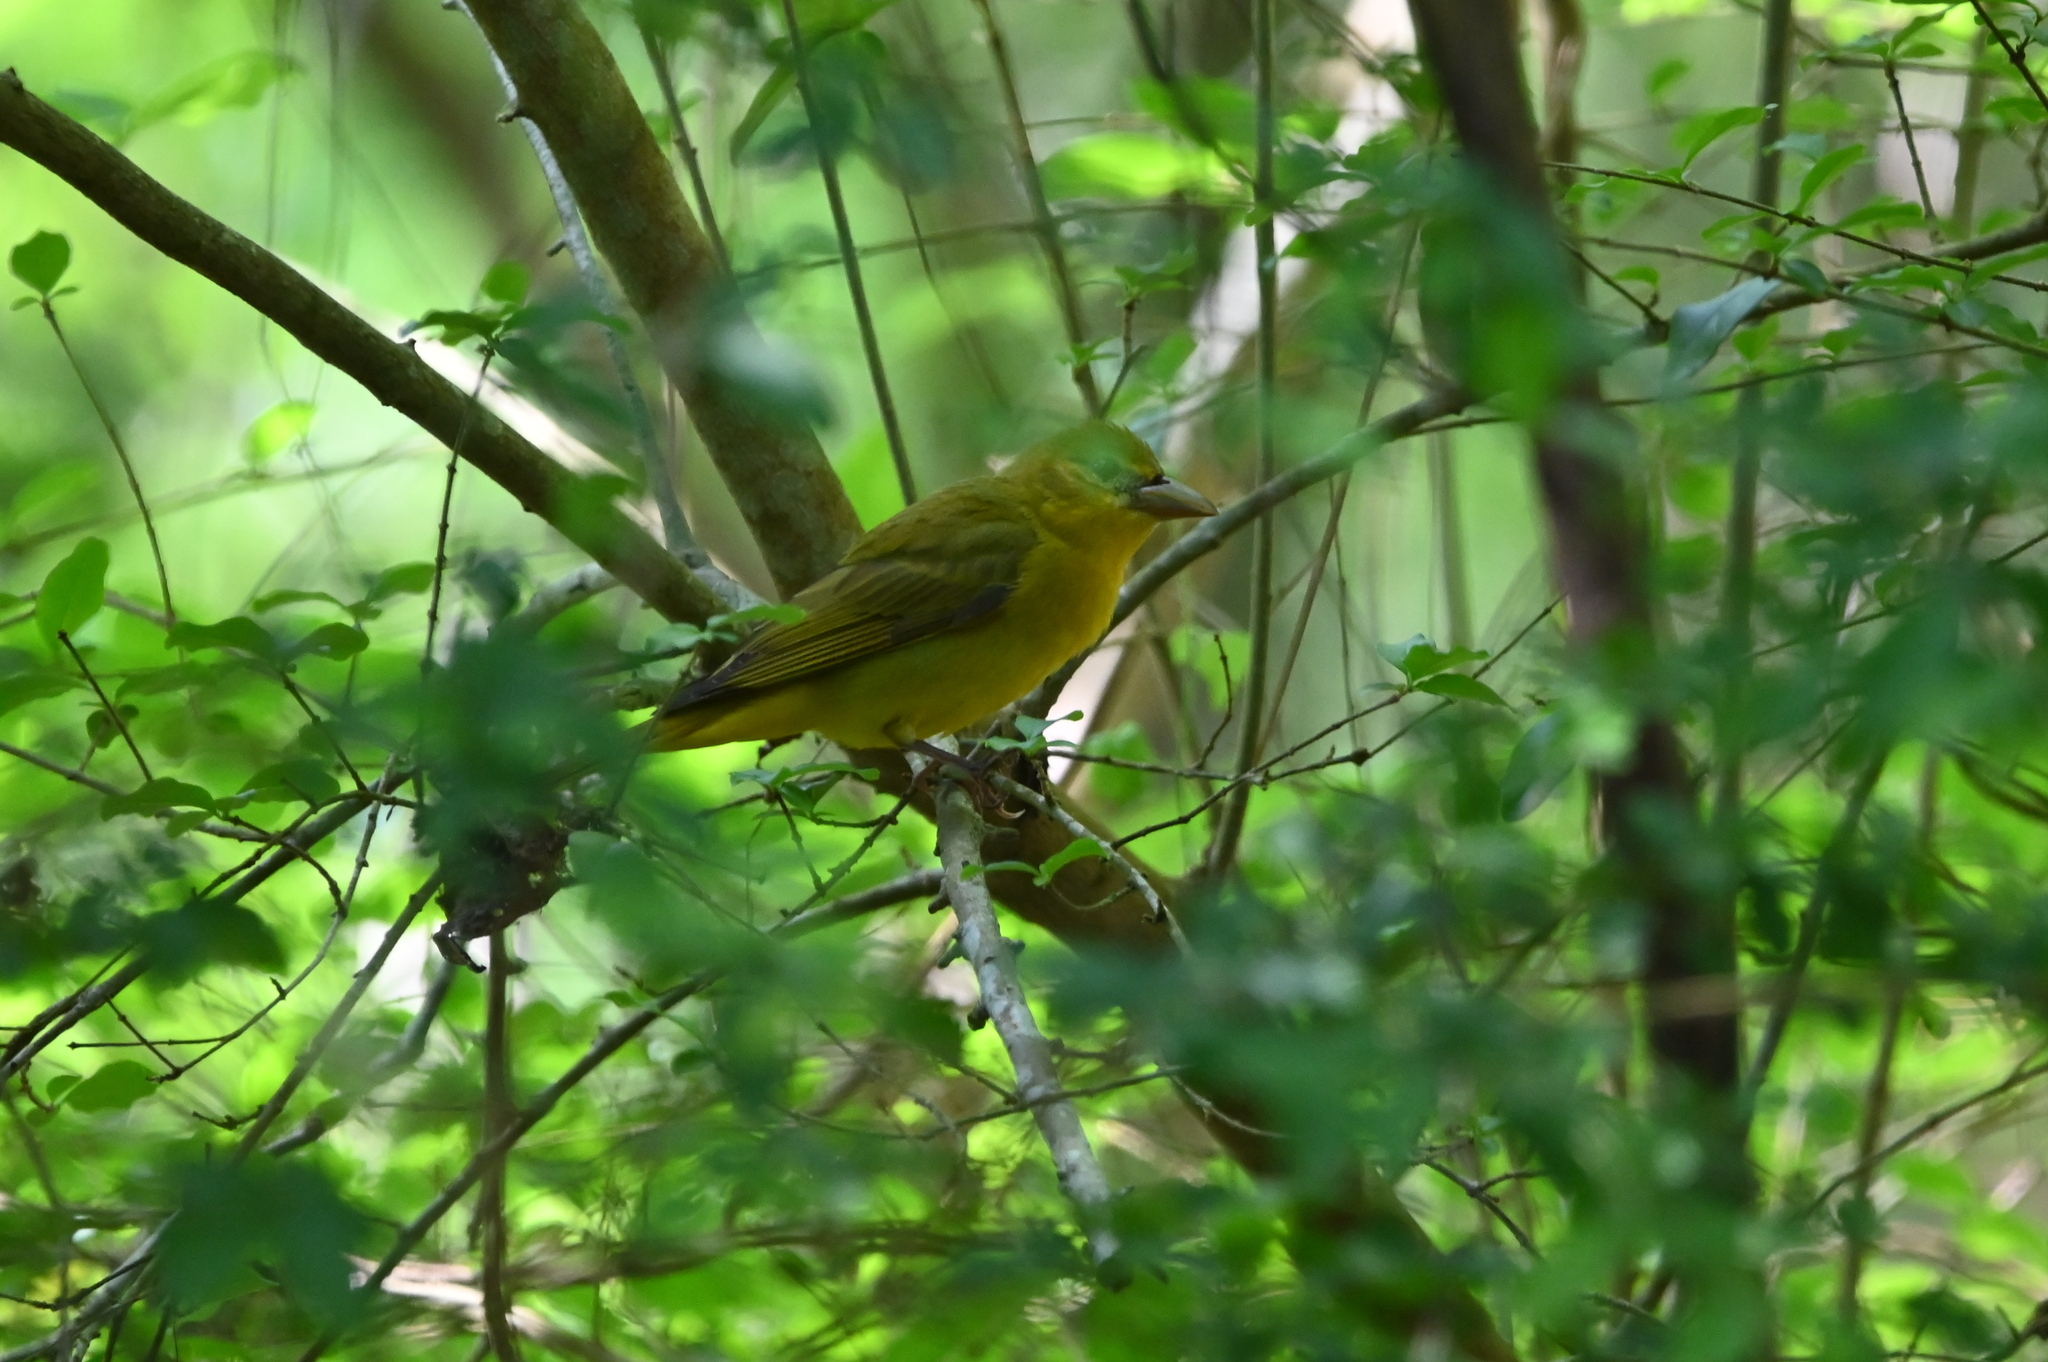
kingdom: Animalia
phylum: Chordata
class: Aves
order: Passeriformes
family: Cardinalidae
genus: Piranga
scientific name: Piranga rubra
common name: Summer tanager
